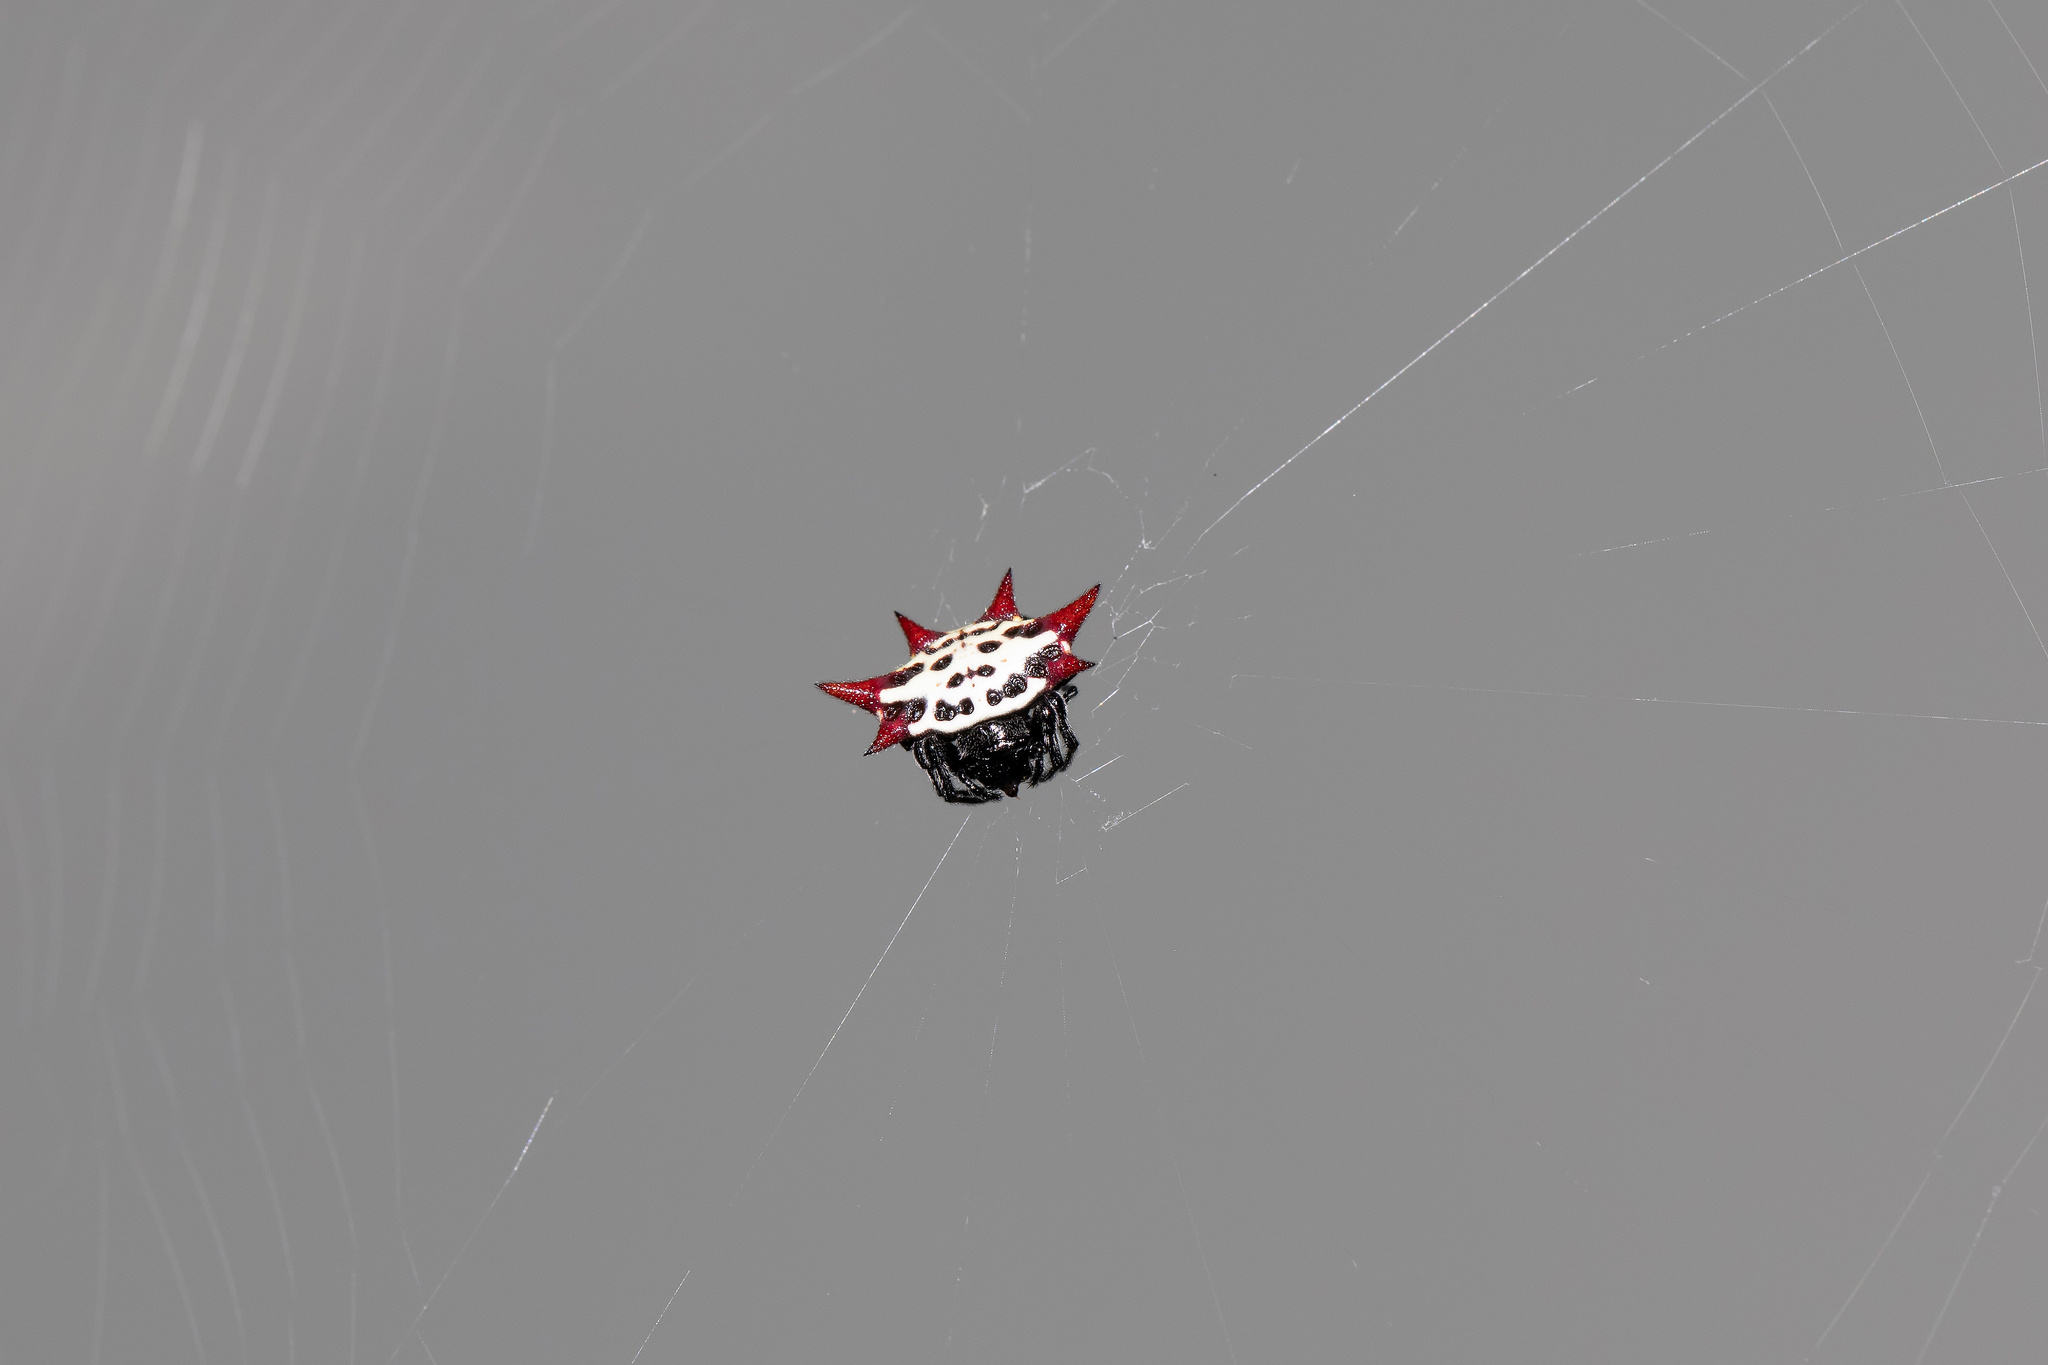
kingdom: Animalia
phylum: Arthropoda
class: Arachnida
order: Araneae
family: Araneidae
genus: Gasteracantha
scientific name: Gasteracantha cancriformis
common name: Orb weavers
